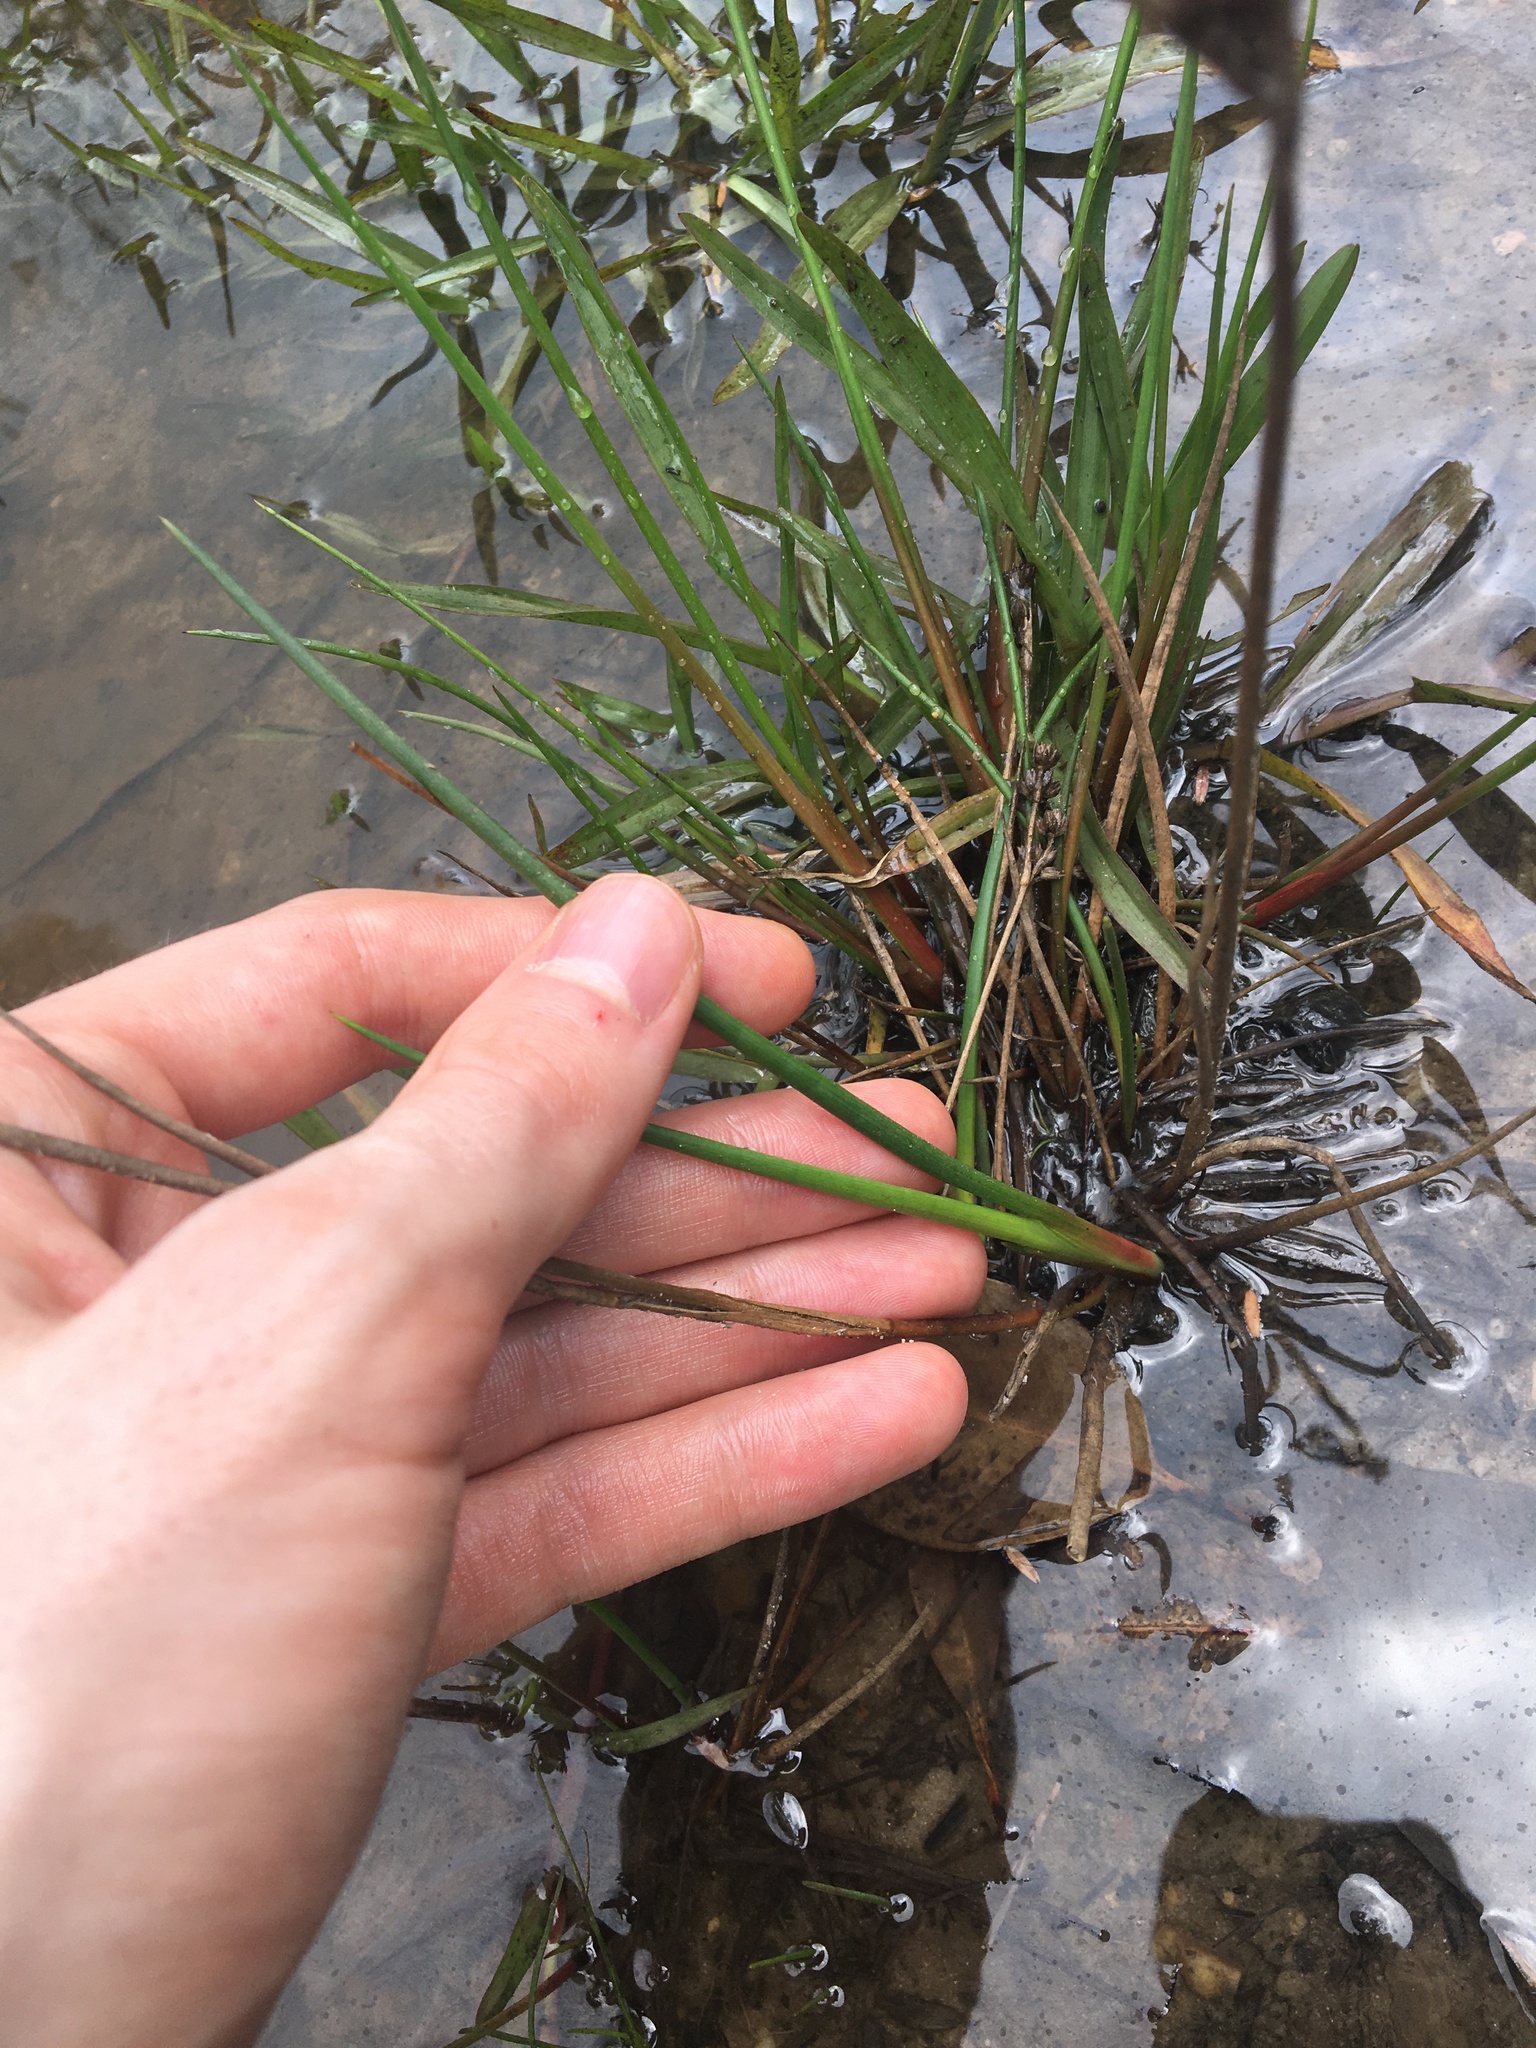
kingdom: Plantae
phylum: Tracheophyta
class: Liliopsida
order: Poales
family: Juncaceae
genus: Juncus
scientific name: Juncus planifolius
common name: Broadleaf rush
